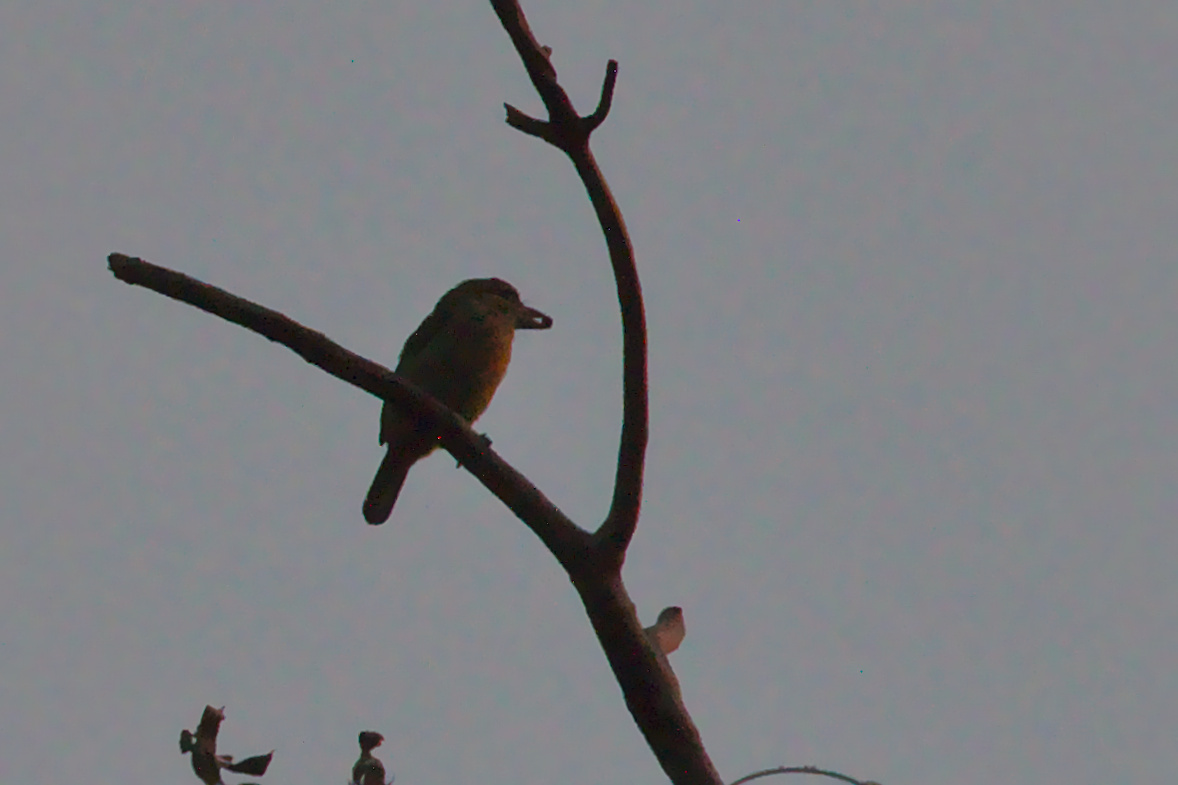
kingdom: Animalia
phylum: Chordata
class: Aves
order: Piciformes
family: Megalaimidae
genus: Psilopogon
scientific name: Psilopogon viridis
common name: White-cheeked barbet
